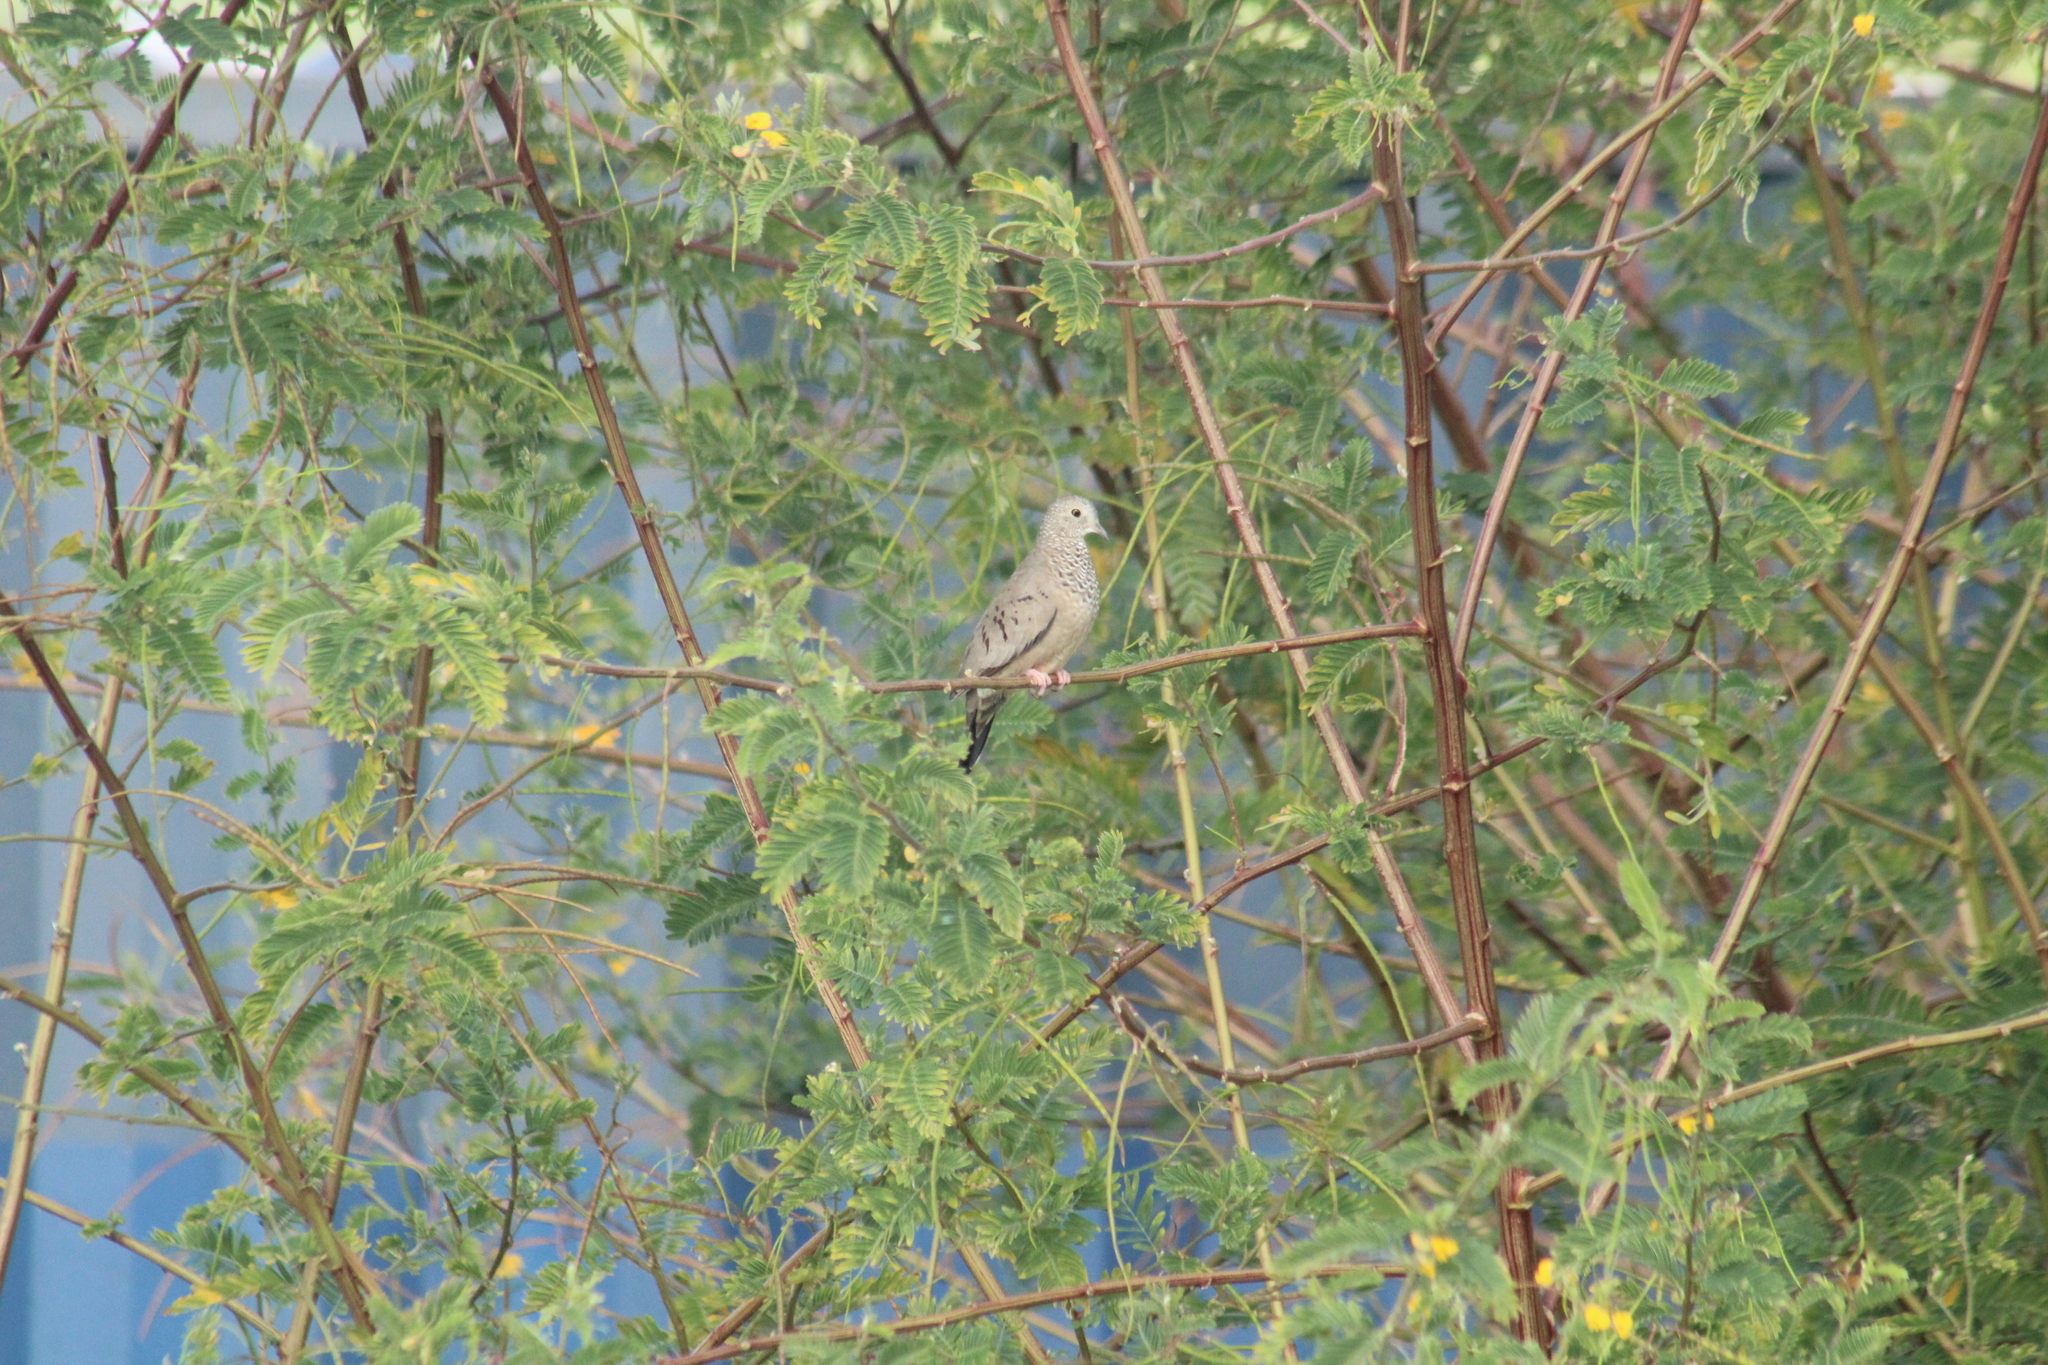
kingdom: Animalia
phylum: Chordata
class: Aves
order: Columbiformes
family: Columbidae
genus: Columbina
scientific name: Columbina passerina
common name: Common ground-dove
